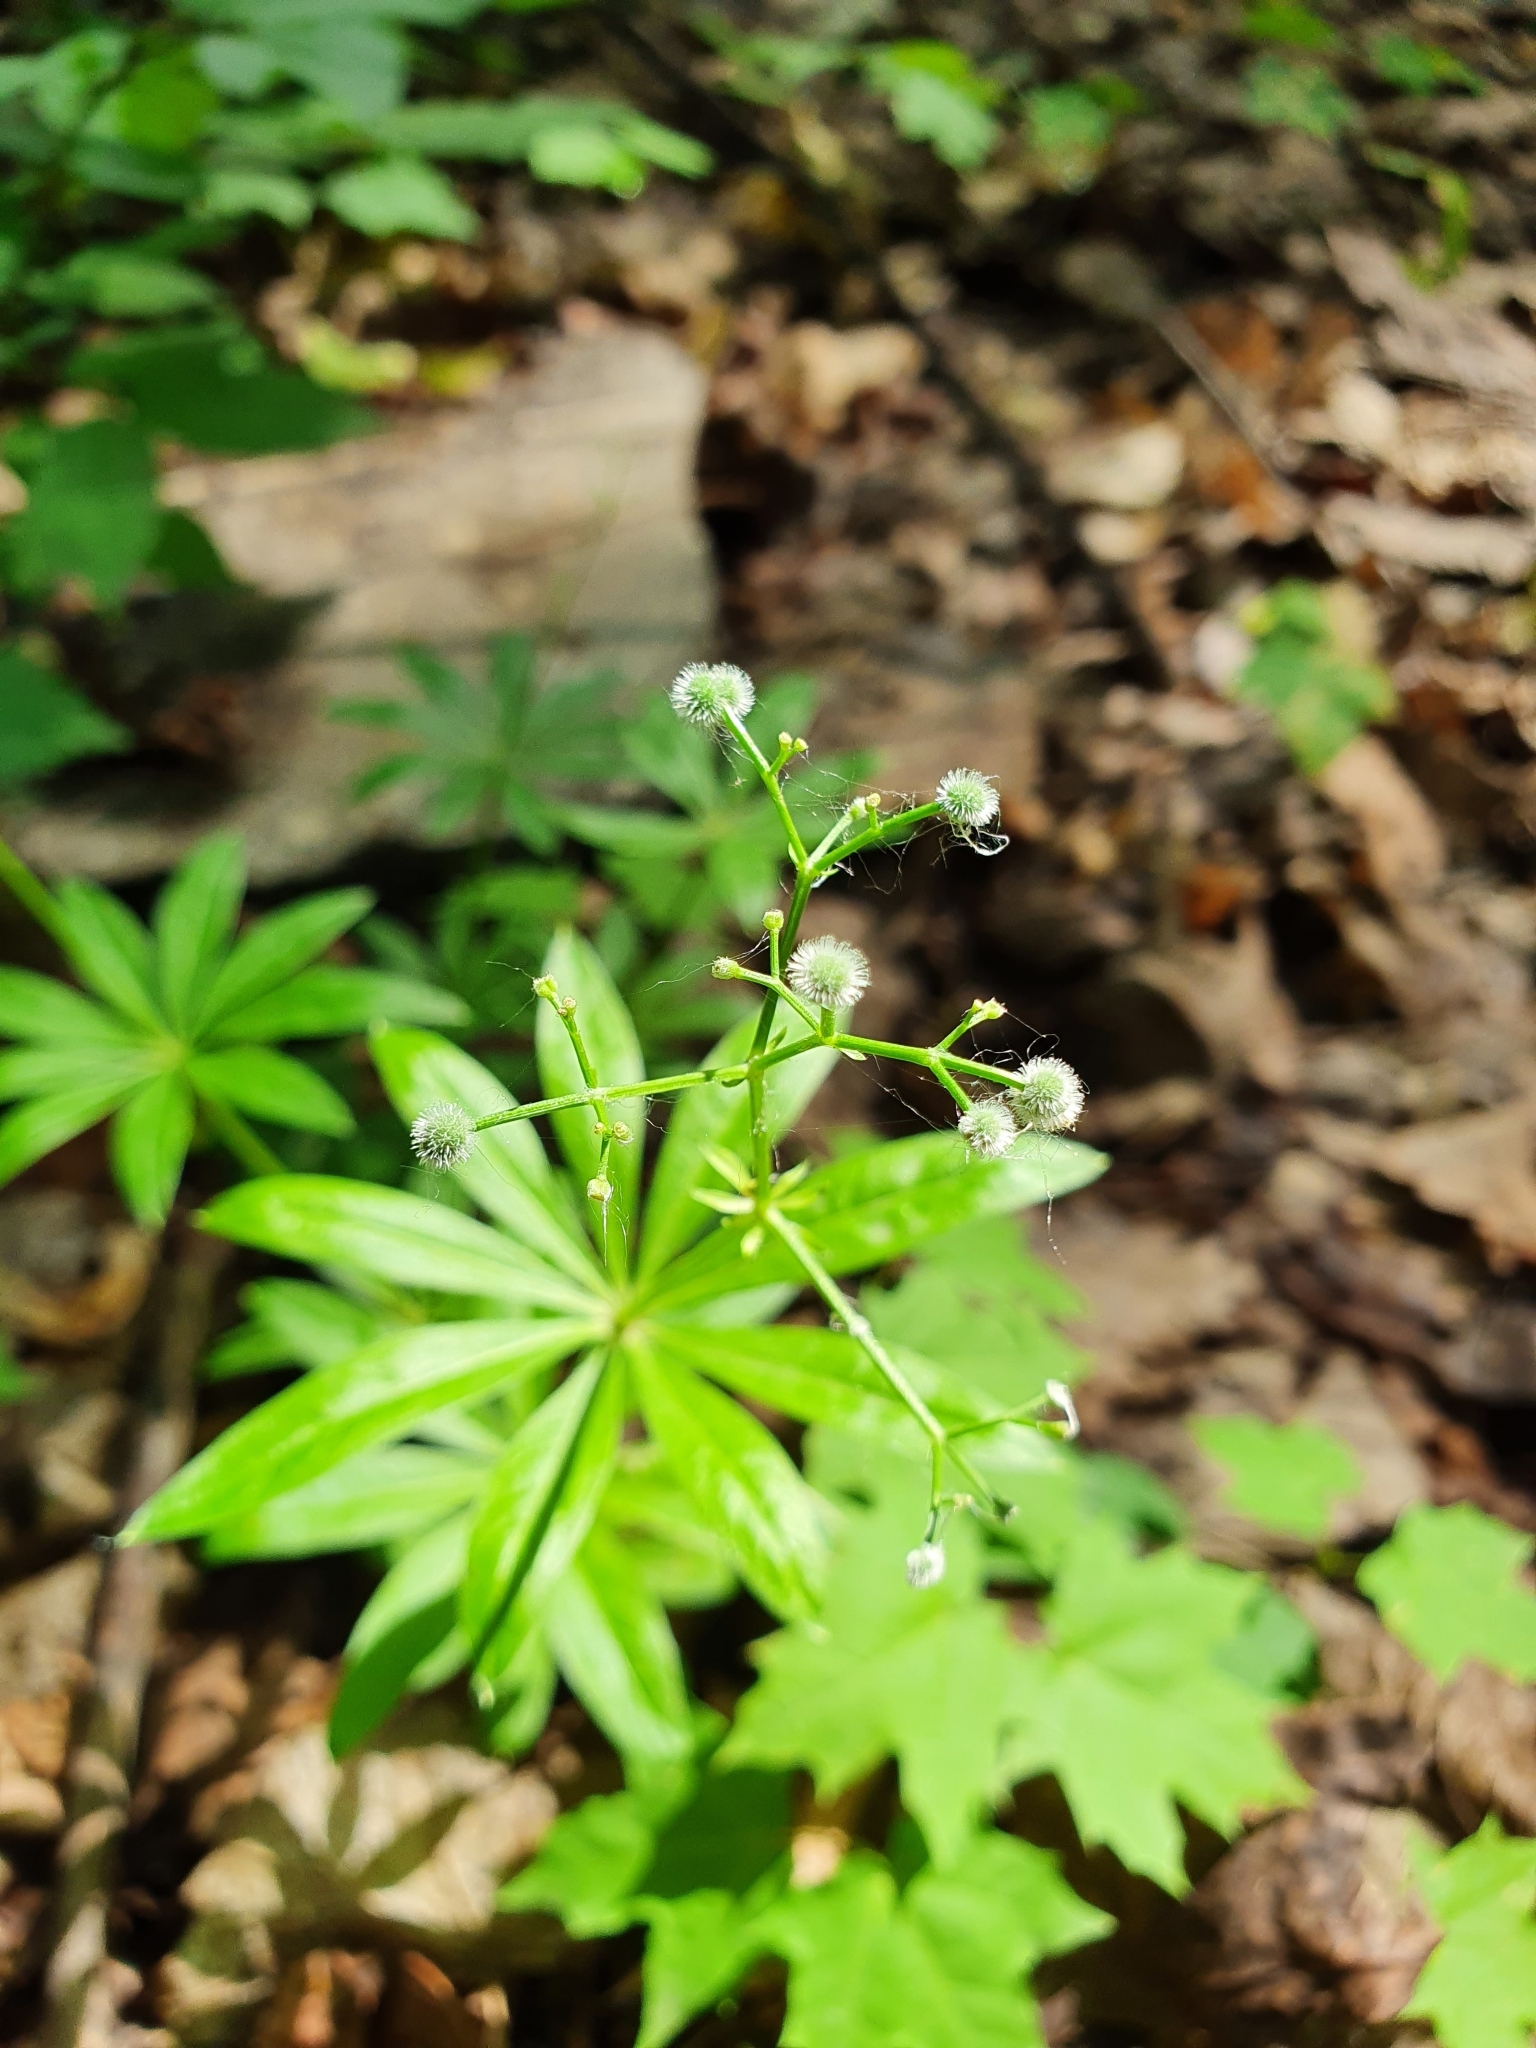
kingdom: Plantae
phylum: Tracheophyta
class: Magnoliopsida
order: Gentianales
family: Rubiaceae
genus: Galium
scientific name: Galium odoratum
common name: Sweet woodruff
